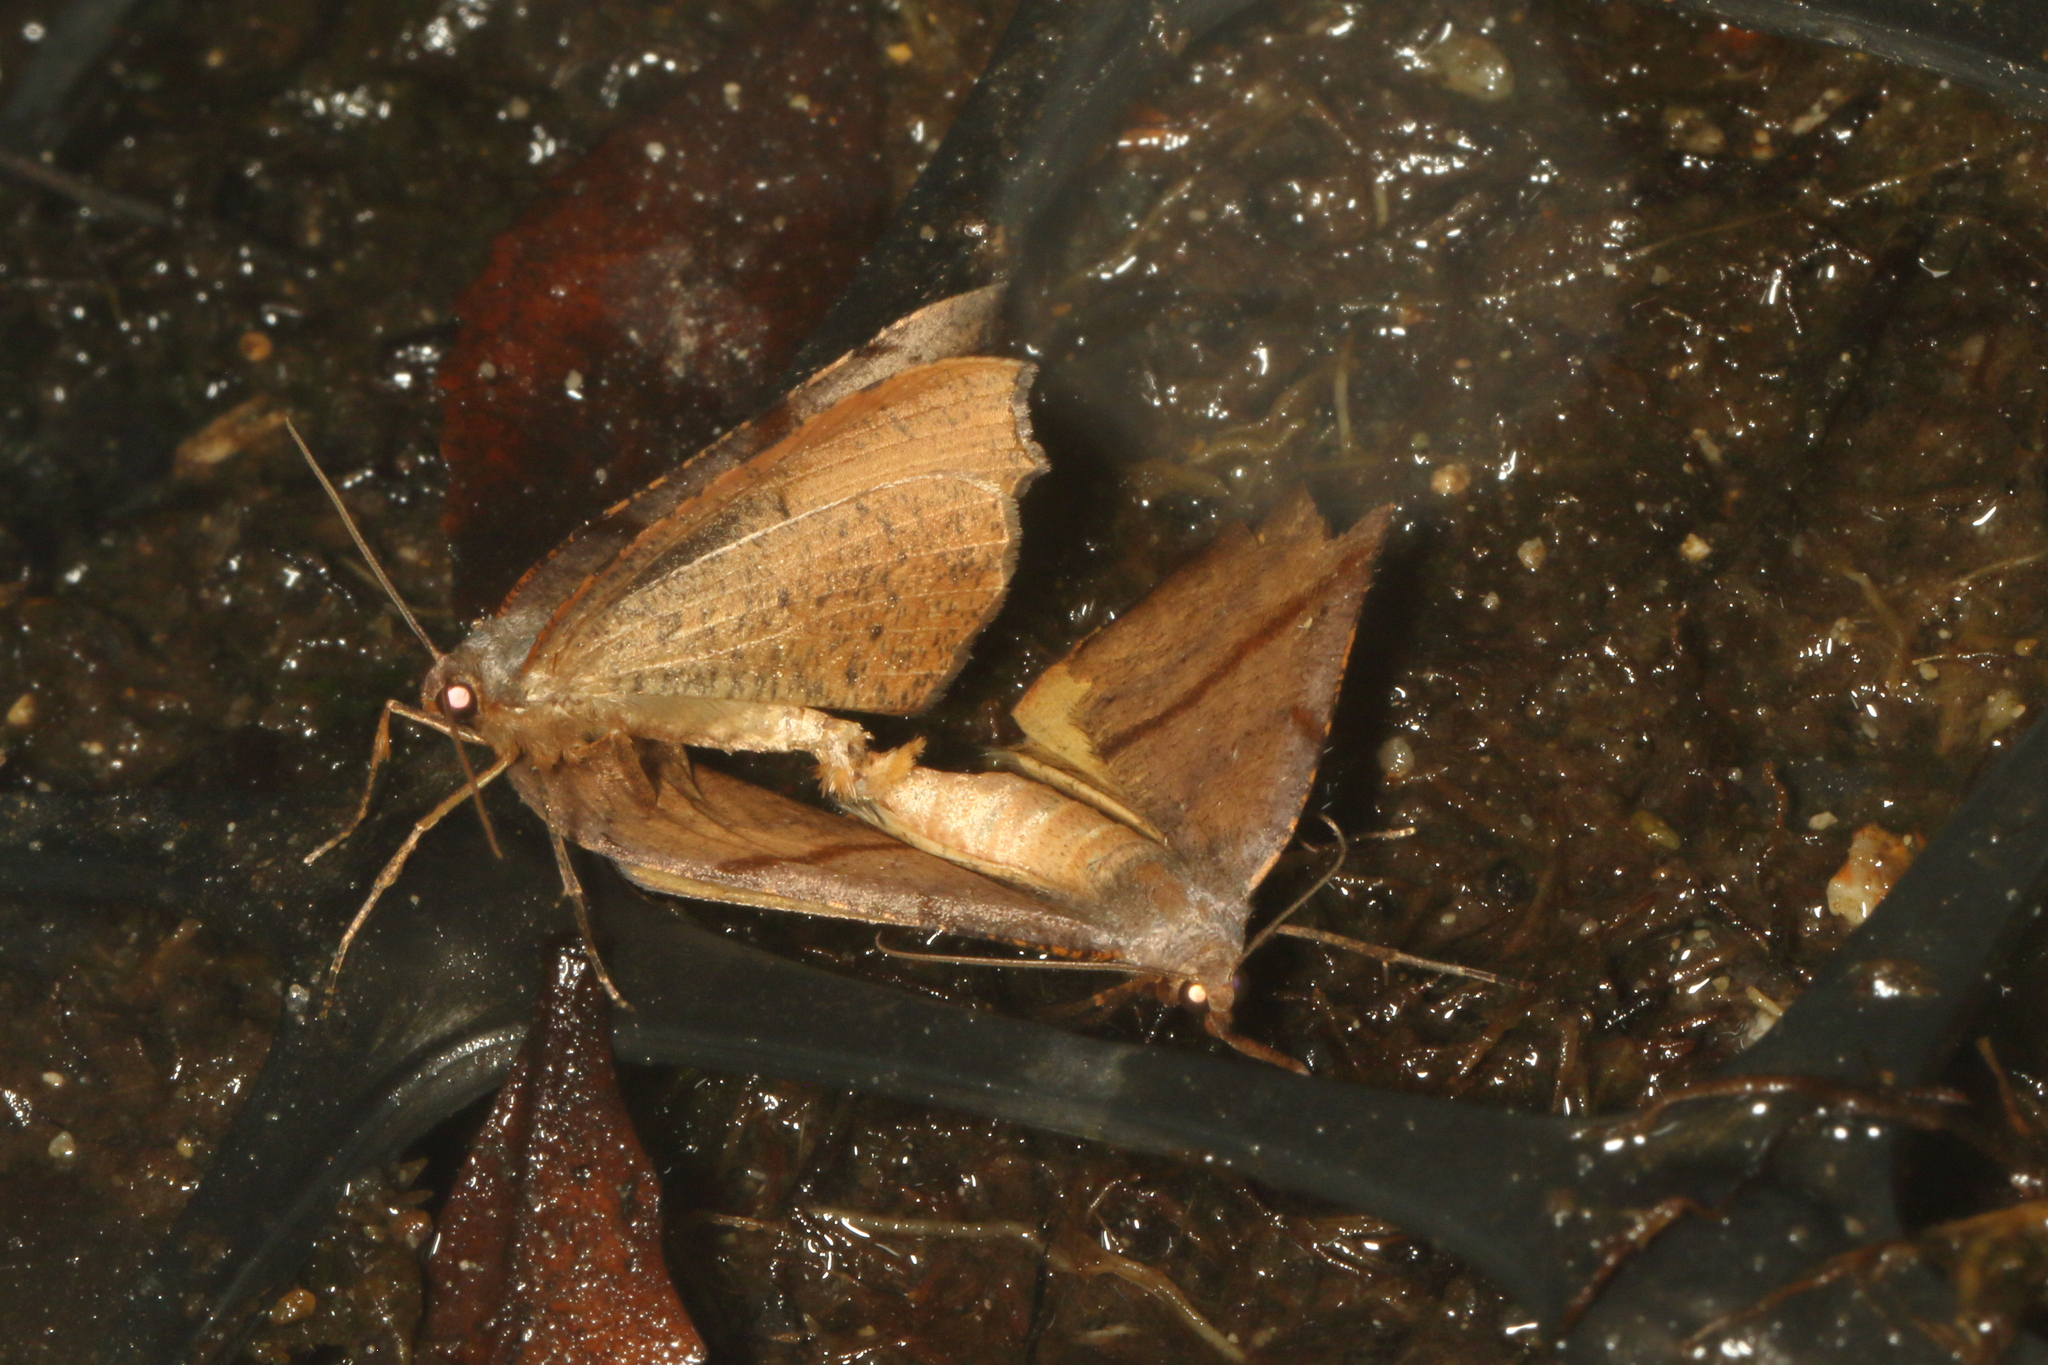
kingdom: Animalia
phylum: Arthropoda
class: Insecta
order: Lepidoptera
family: Geometridae
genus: Sestra
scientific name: Sestra flexata
